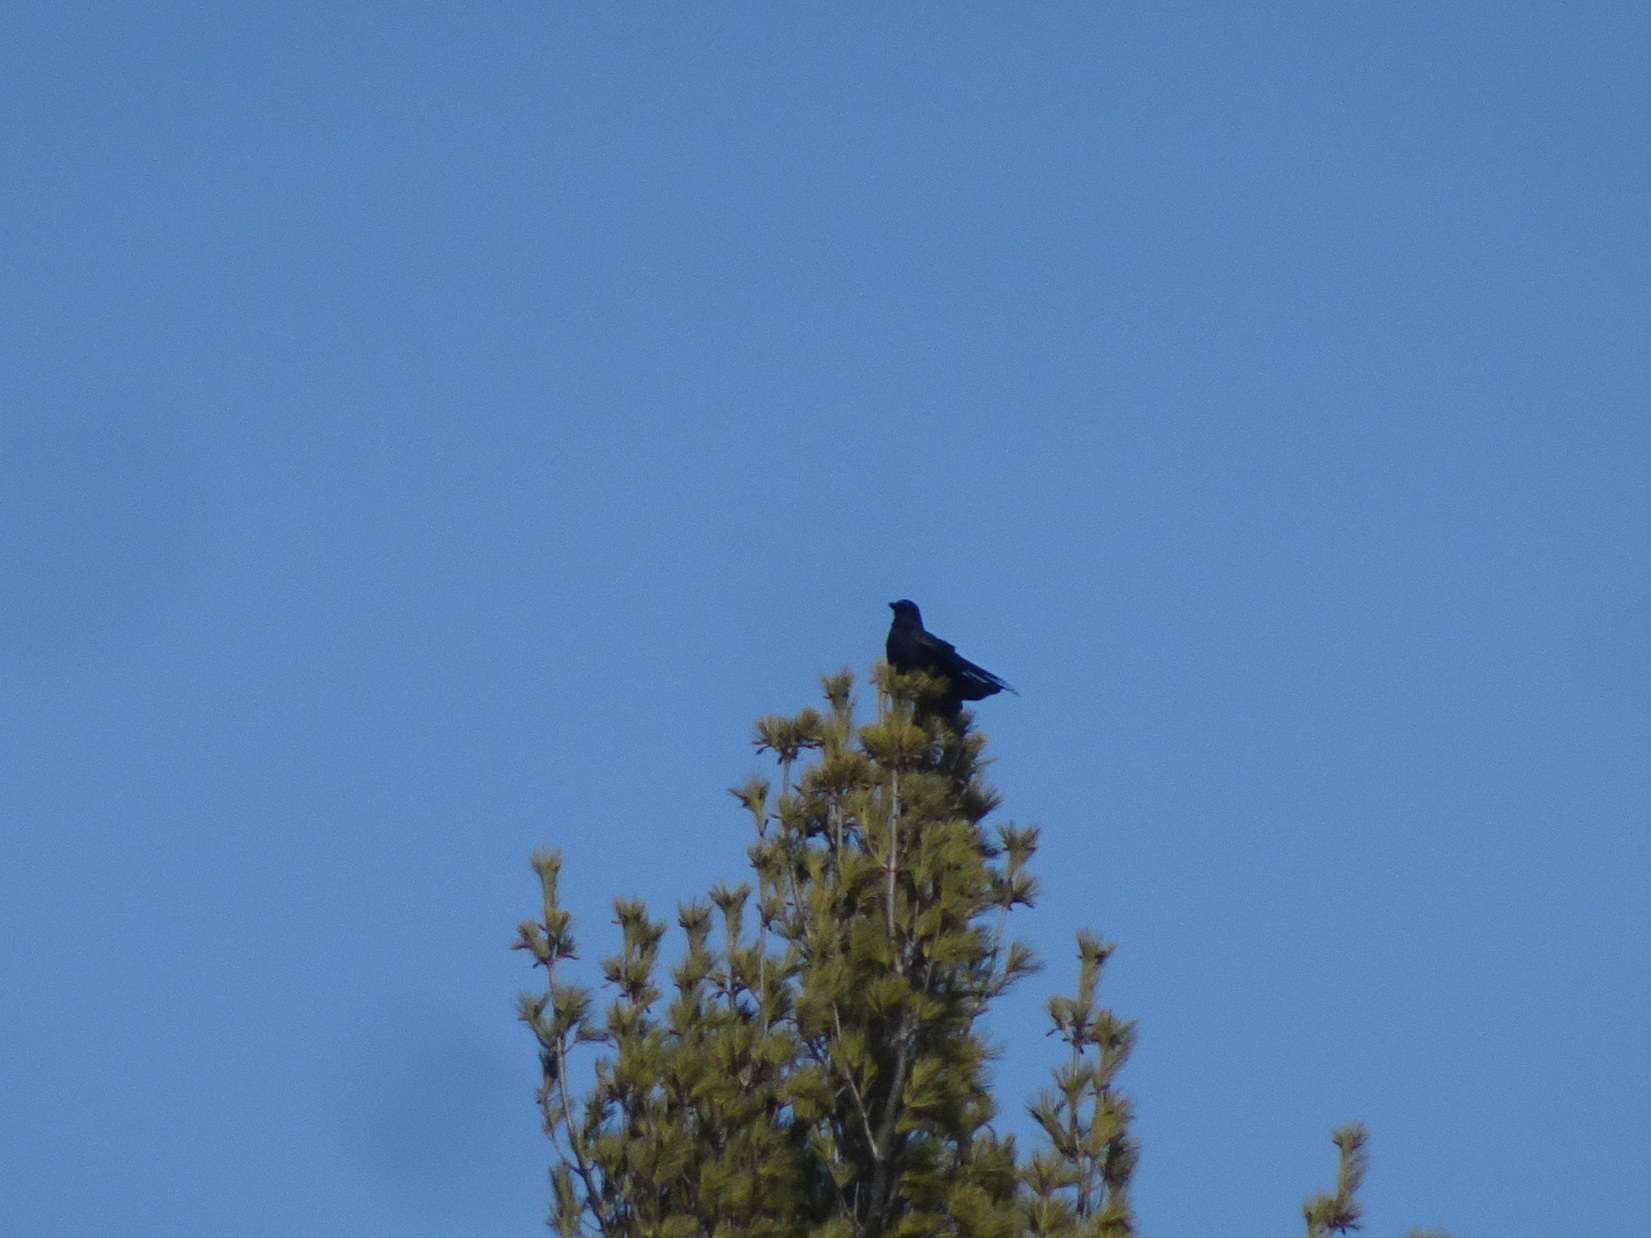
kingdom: Animalia
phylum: Chordata
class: Aves
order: Passeriformes
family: Corvidae
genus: Corvus
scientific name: Corvus brachyrhynchos
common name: American crow
